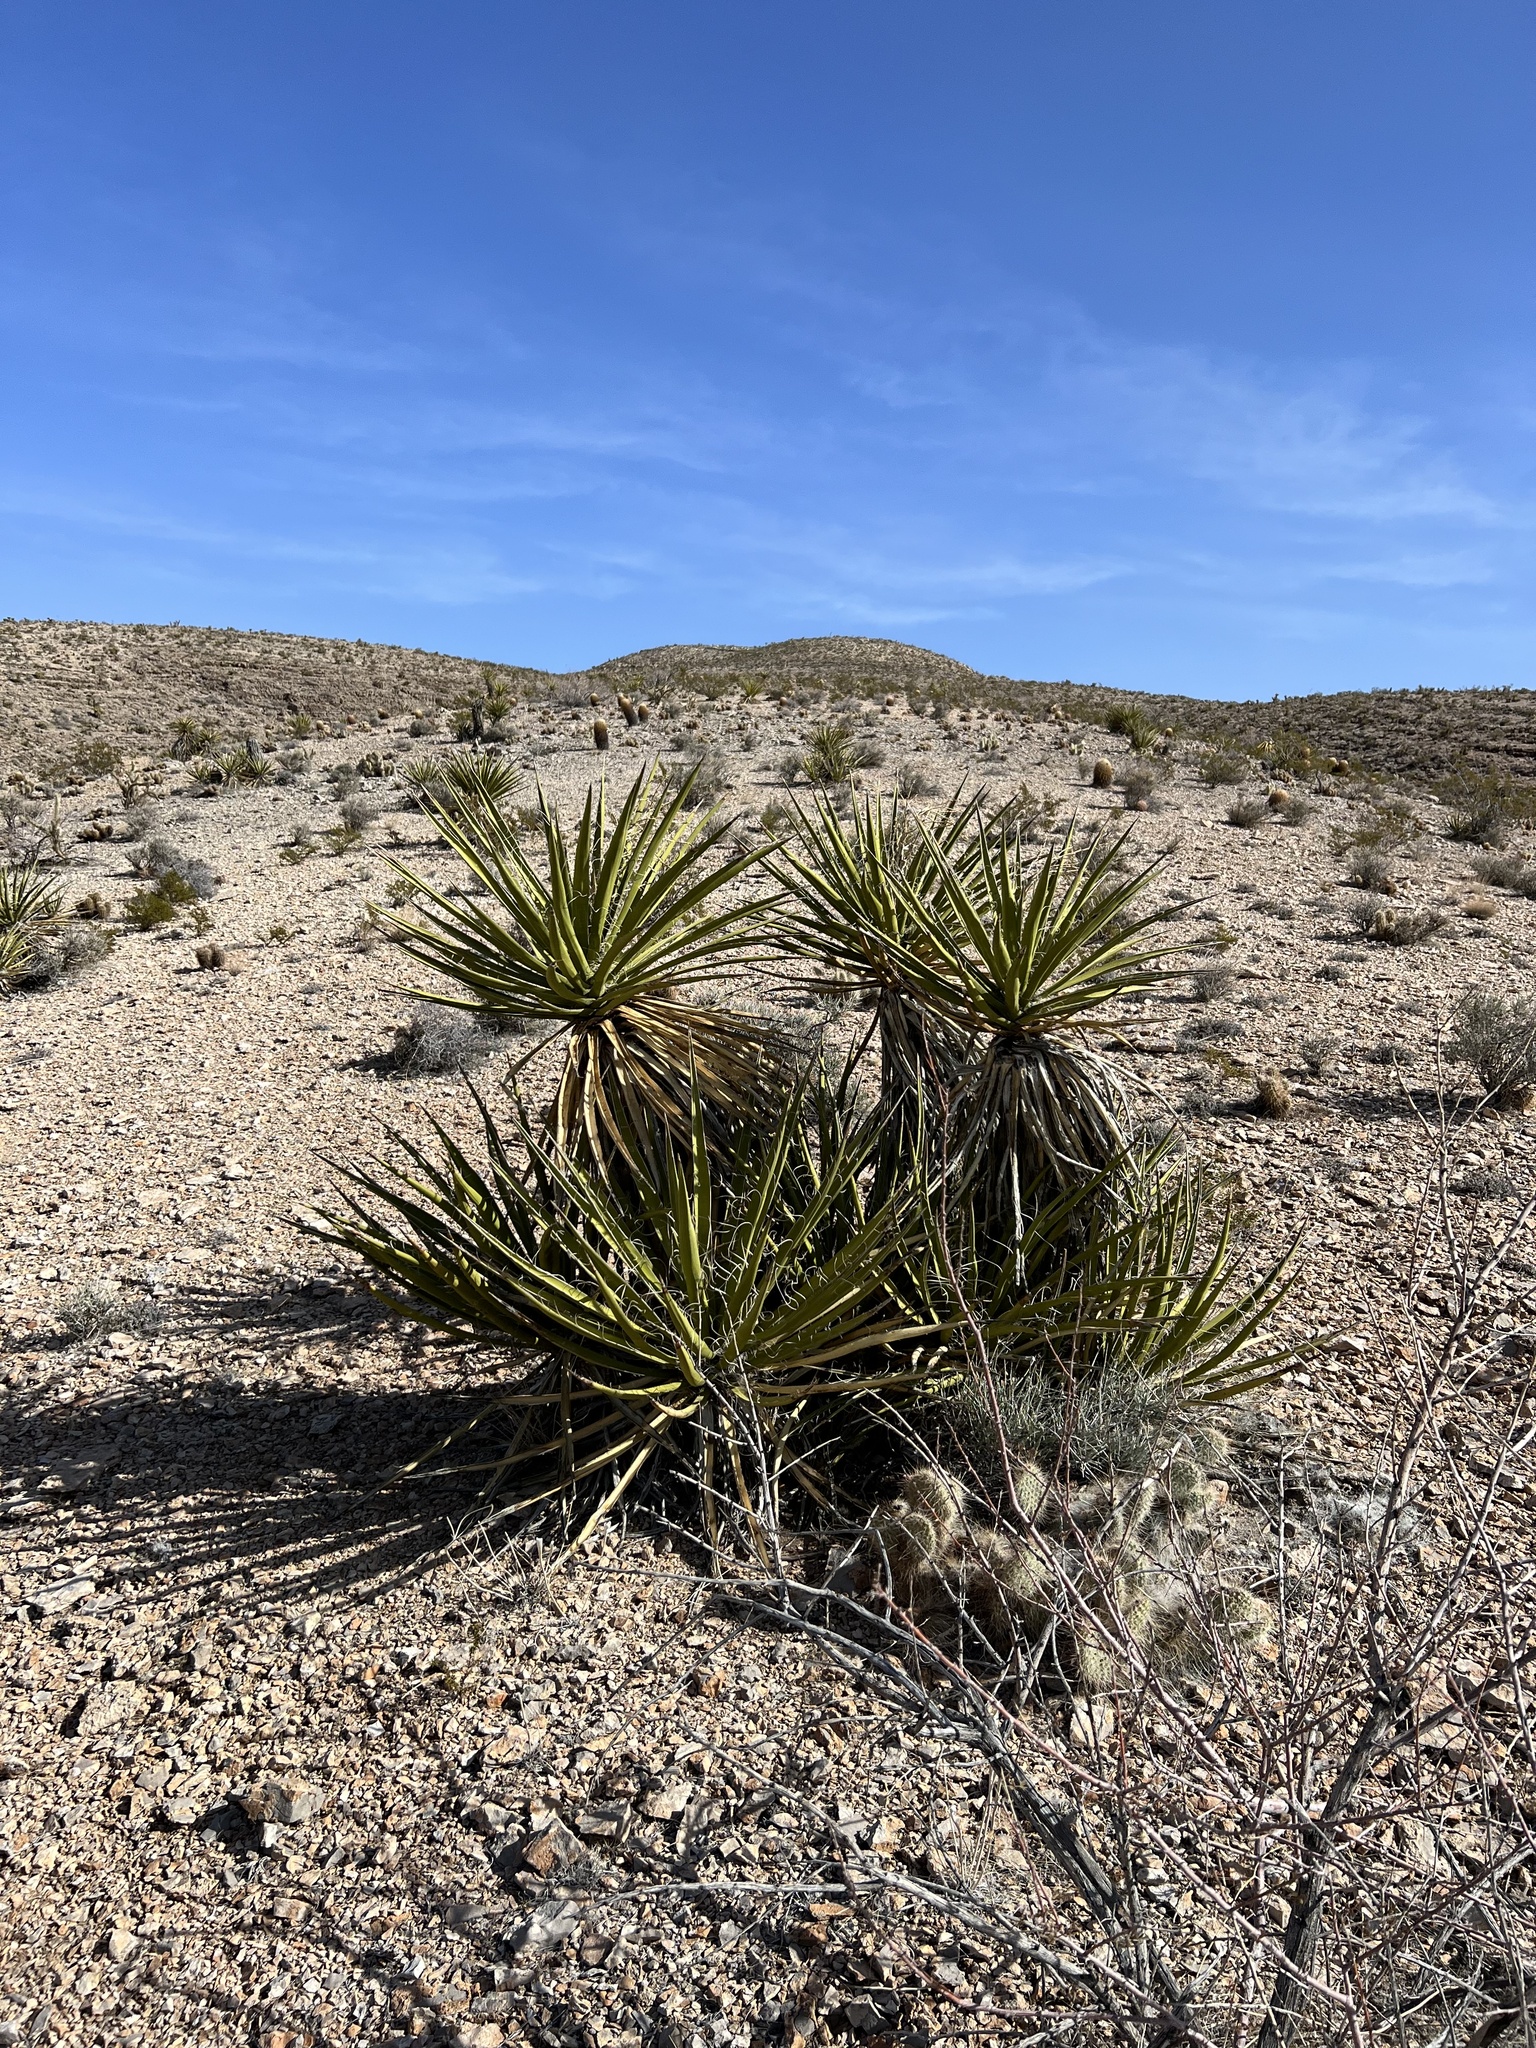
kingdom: Plantae
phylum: Tracheophyta
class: Liliopsida
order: Asparagales
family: Asparagaceae
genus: Yucca
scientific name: Yucca schidigera
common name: Mojave yucca
